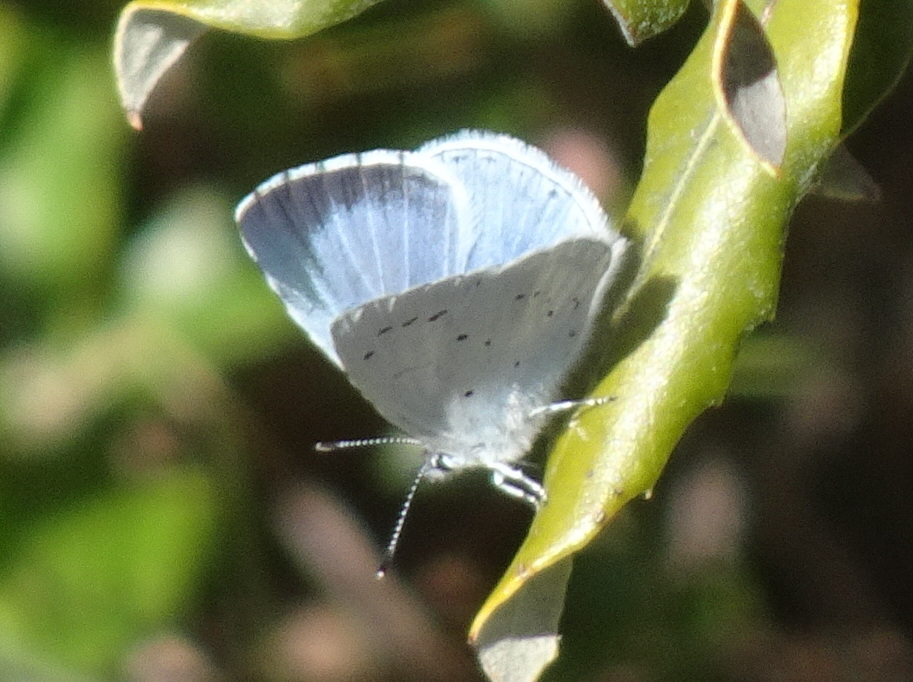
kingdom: Animalia
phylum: Arthropoda
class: Insecta
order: Lepidoptera
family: Lycaenidae
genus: Celastrina
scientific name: Celastrina argiolus
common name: Holly blue
